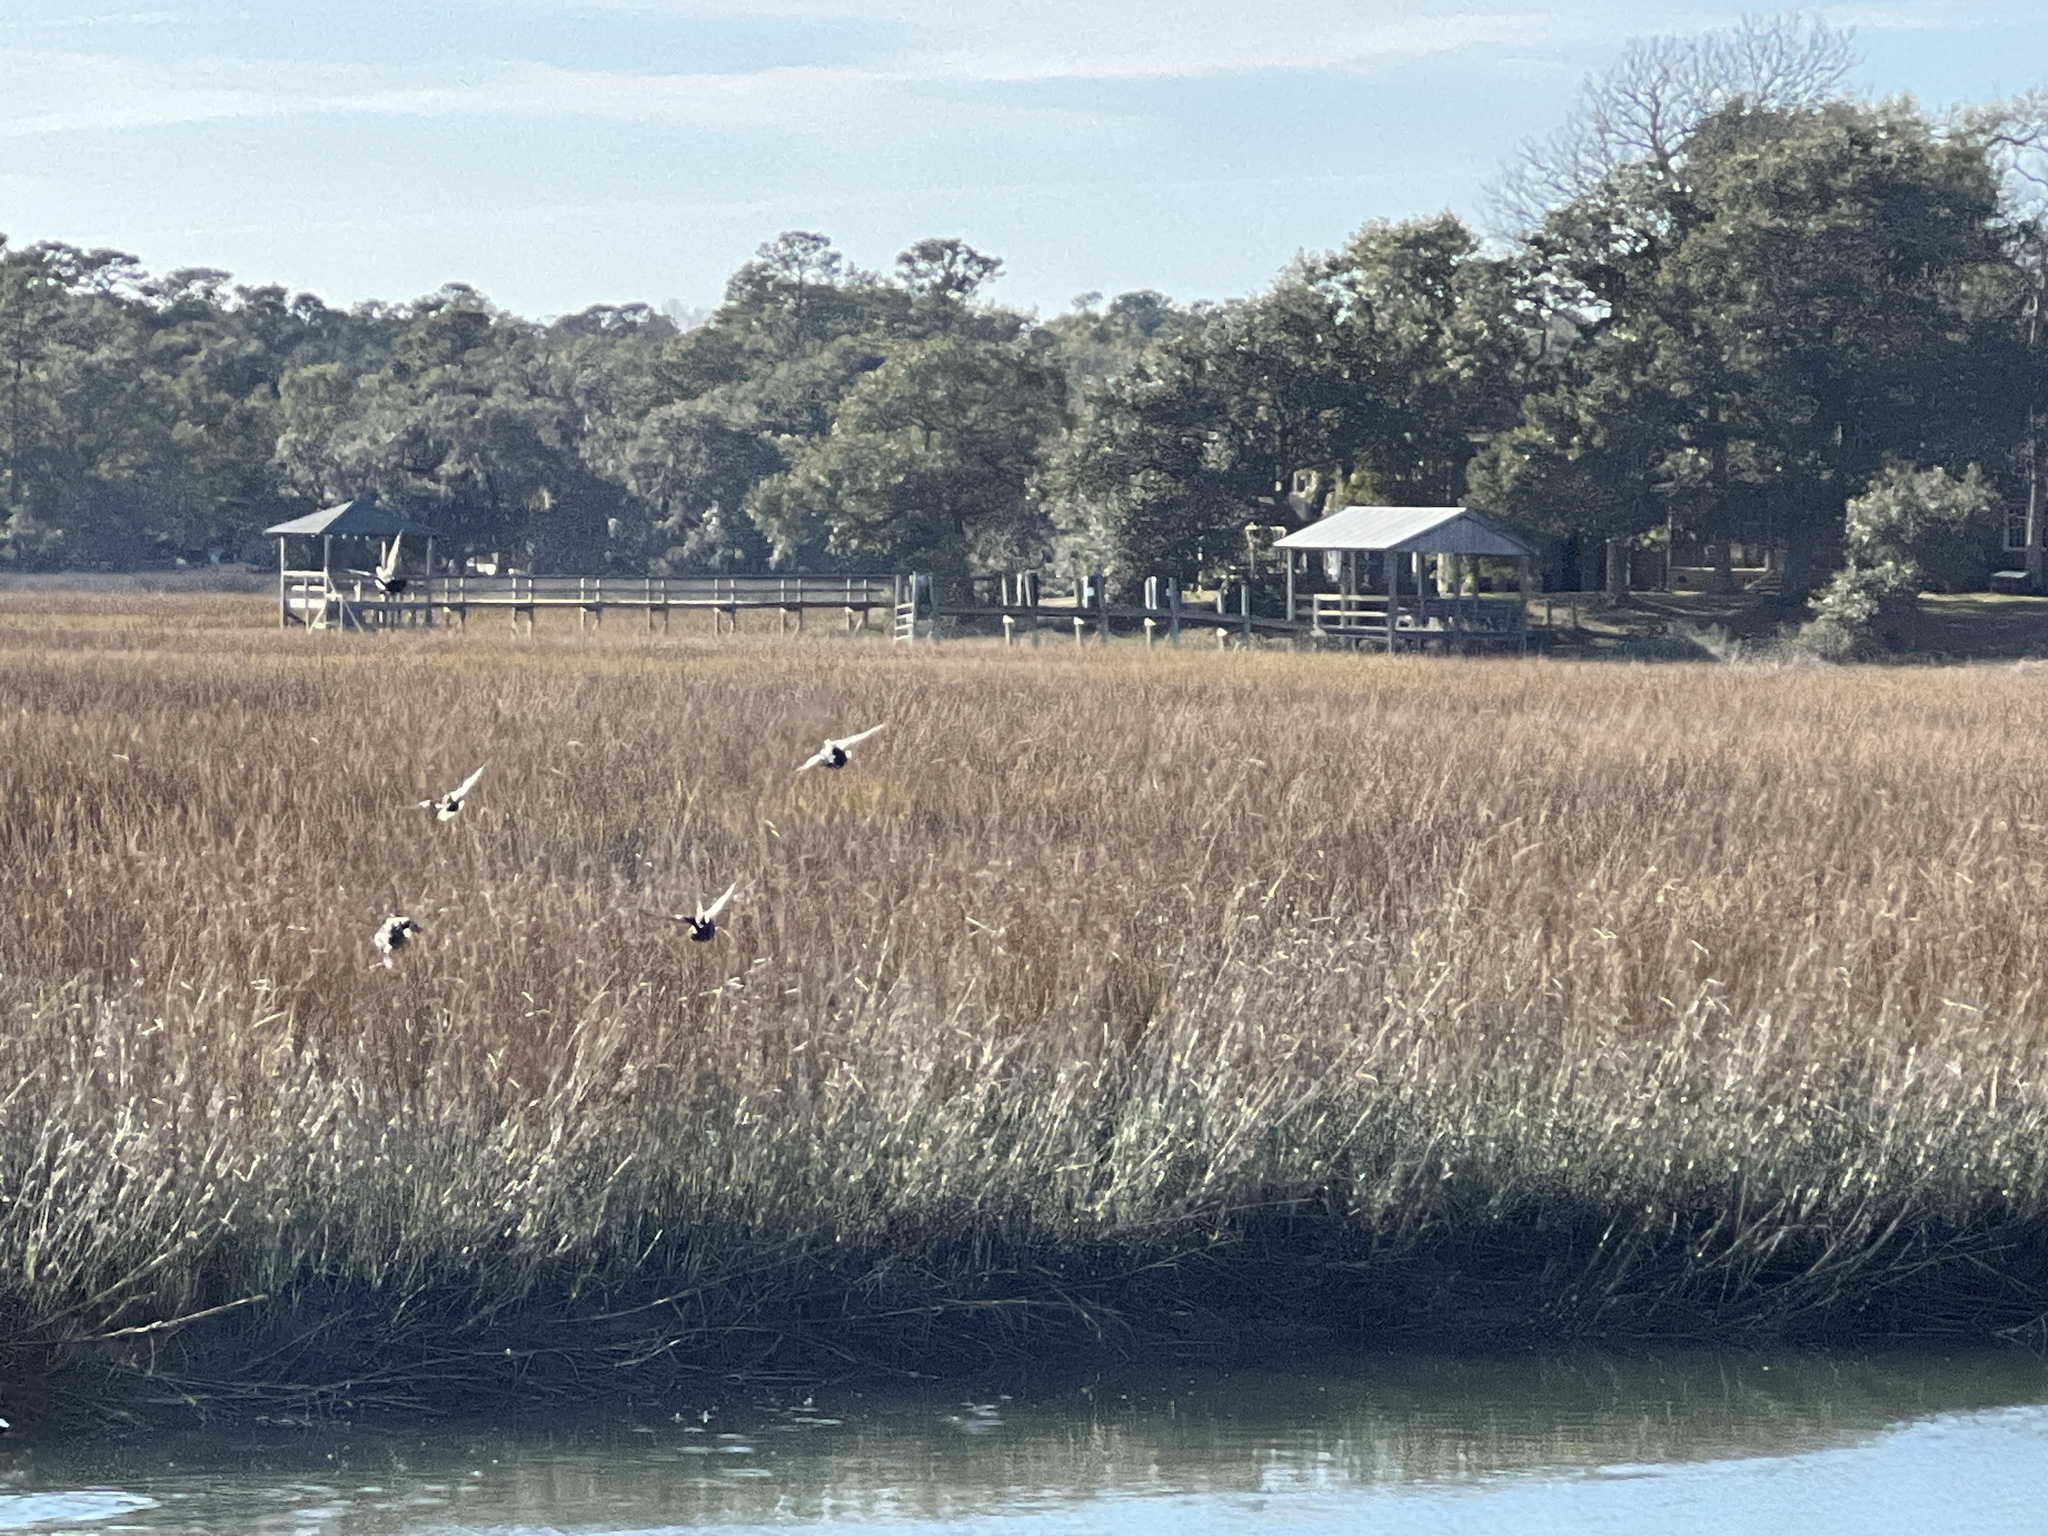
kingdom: Animalia
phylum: Chordata
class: Aves
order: Anseriformes
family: Anatidae
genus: Lophodytes
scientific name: Lophodytes cucullatus
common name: Hooded merganser
